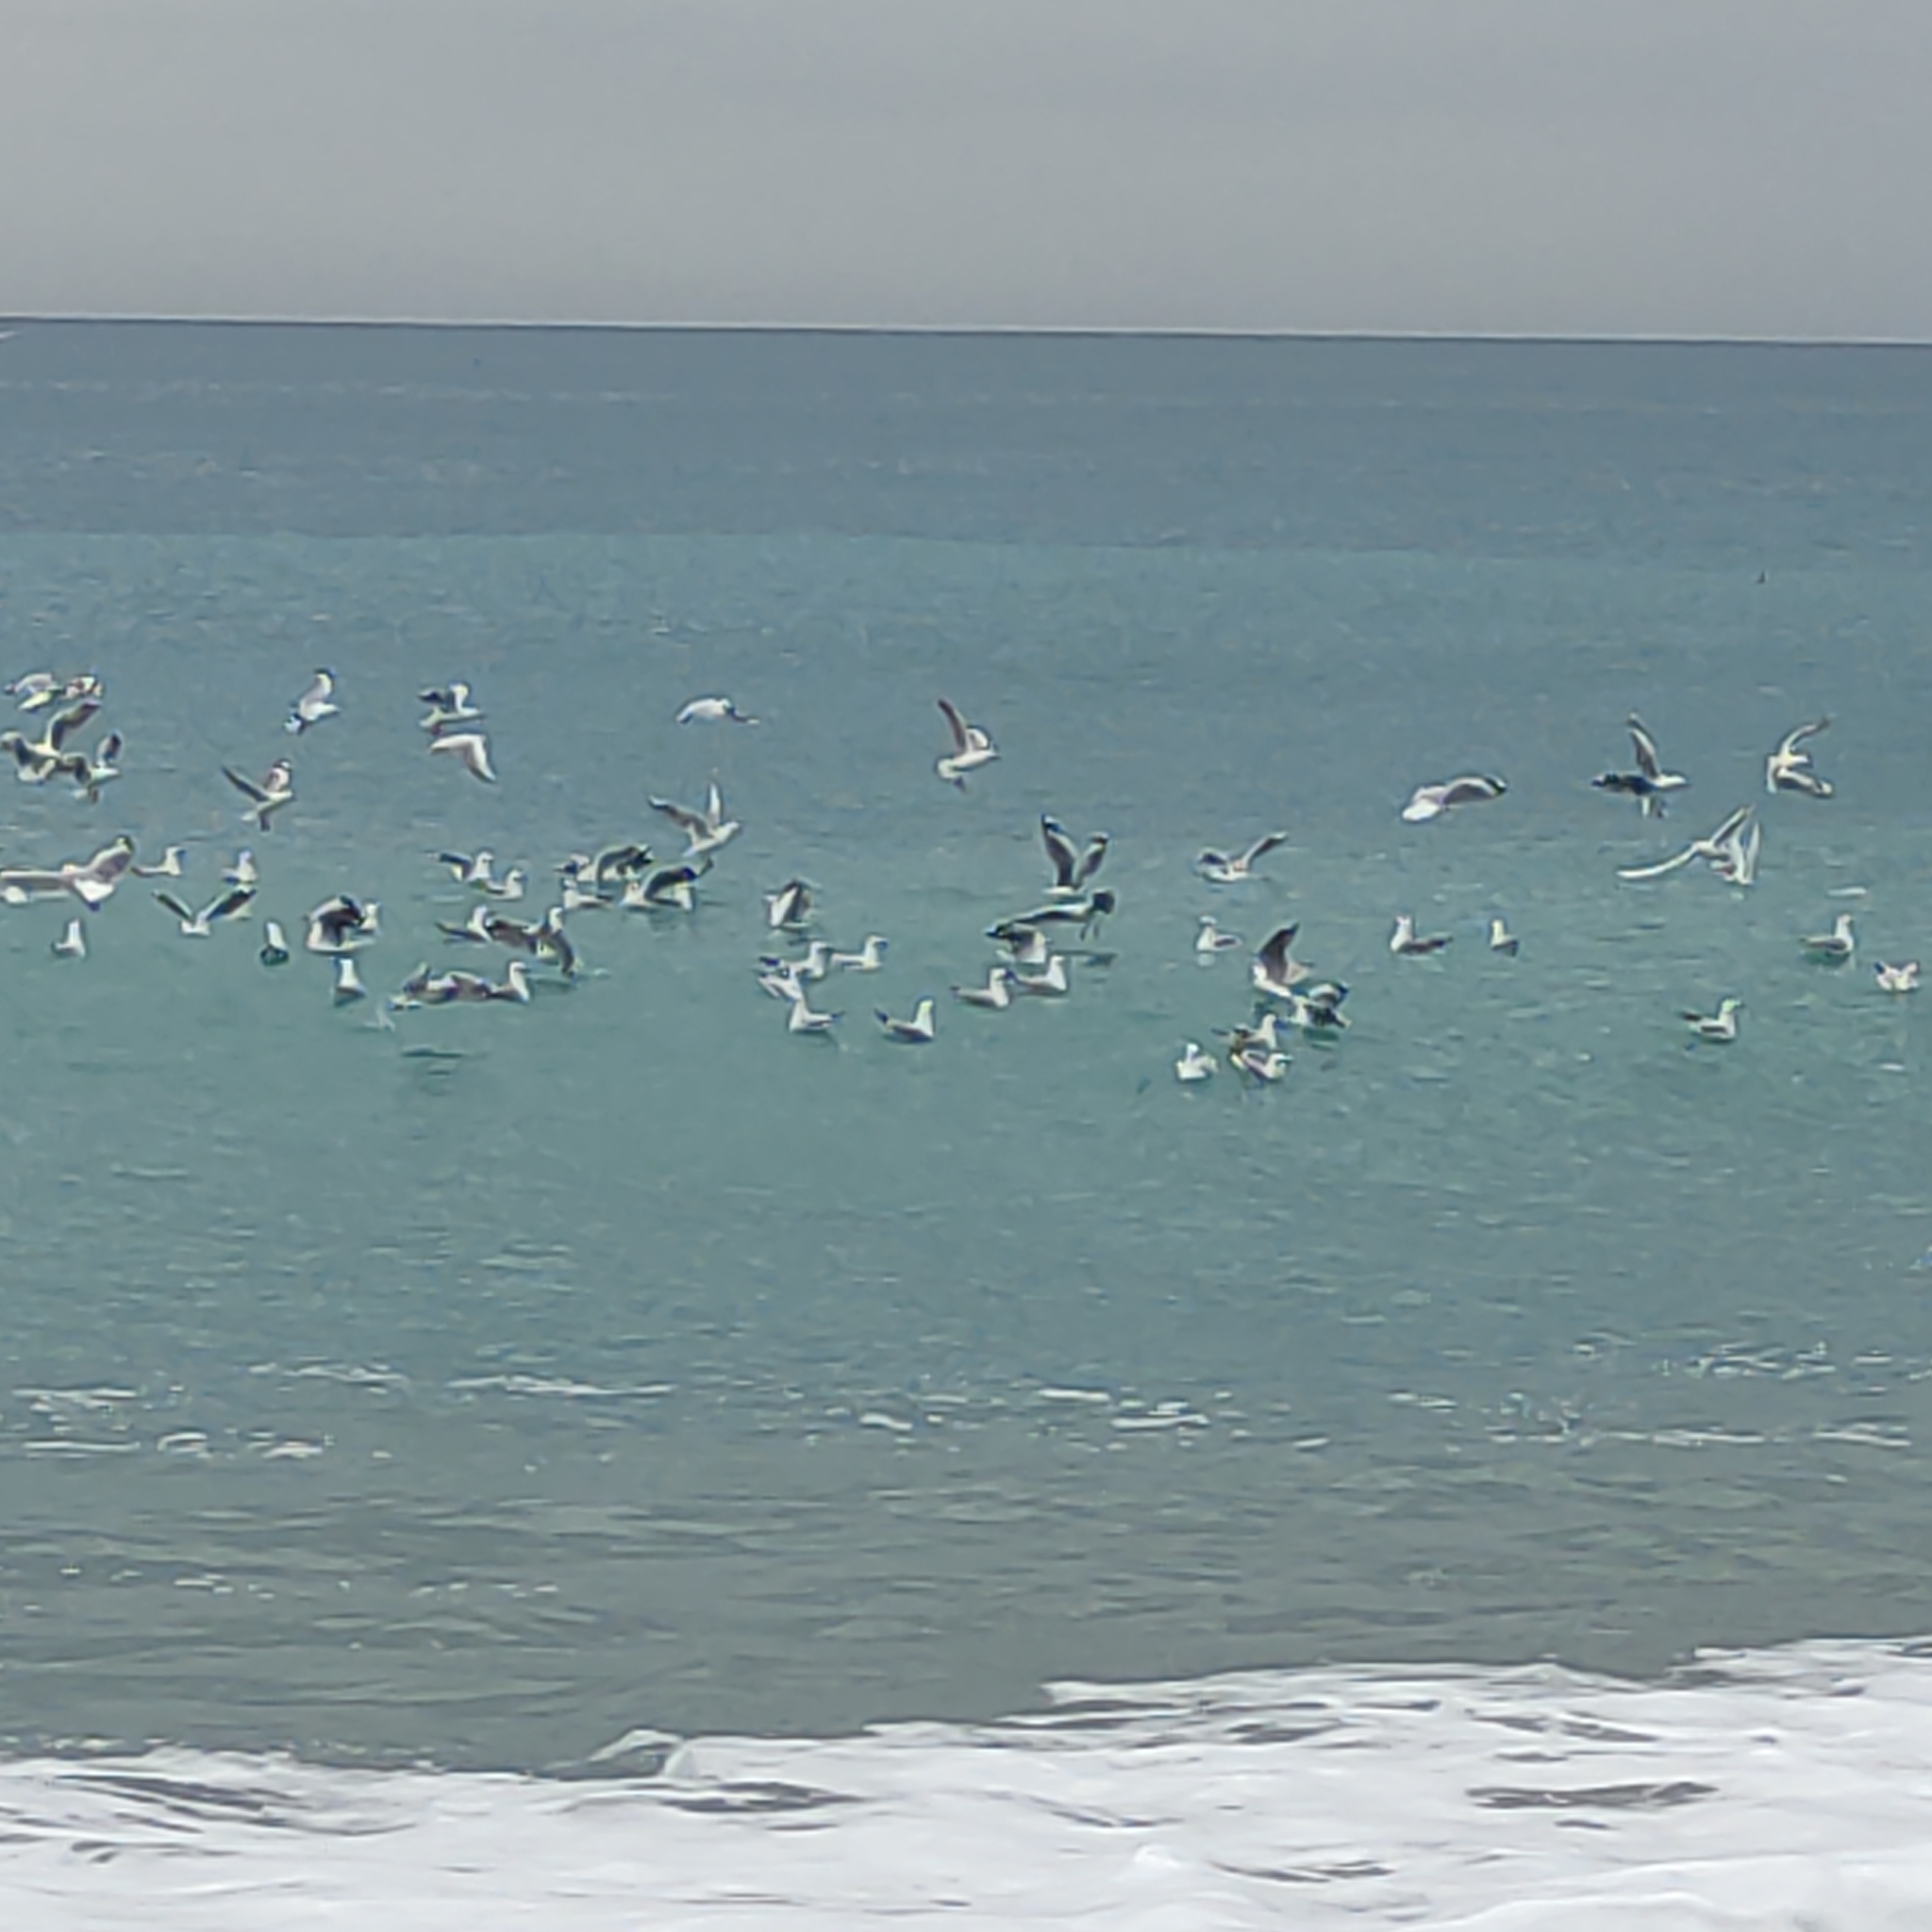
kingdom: Animalia
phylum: Chordata
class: Aves
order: Charadriiformes
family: Laridae
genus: Chroicocephalus
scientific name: Chroicocephalus novaehollandiae
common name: Silver gull
